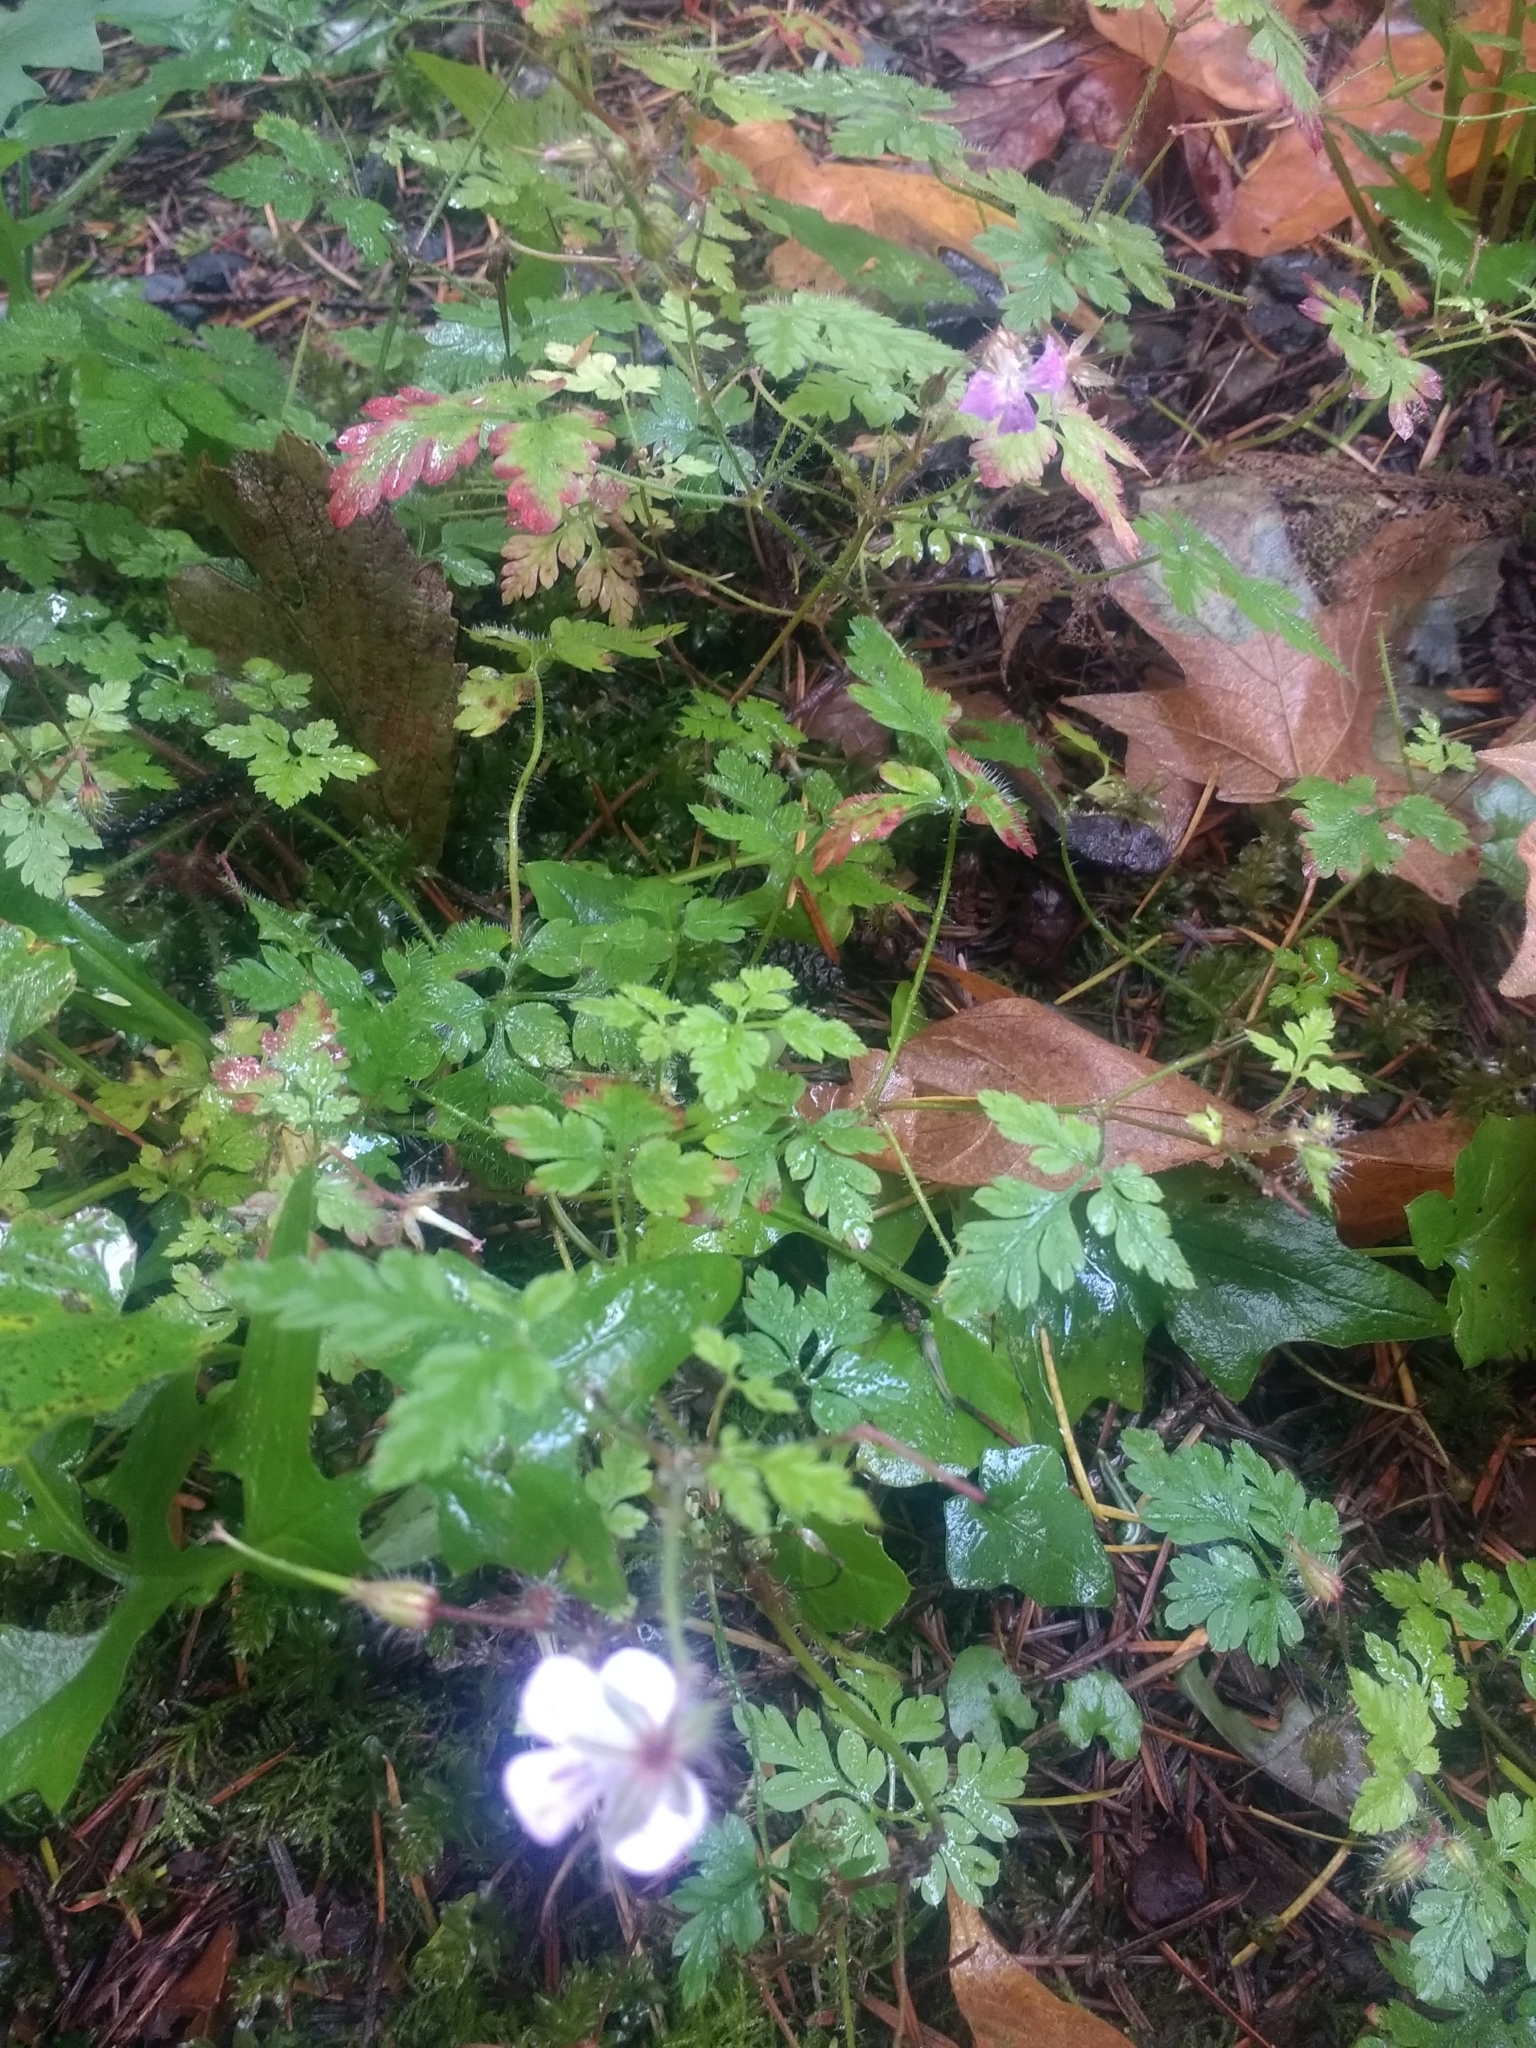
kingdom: Plantae
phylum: Tracheophyta
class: Magnoliopsida
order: Geraniales
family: Geraniaceae
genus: Geranium
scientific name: Geranium robertianum
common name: Herb-robert
